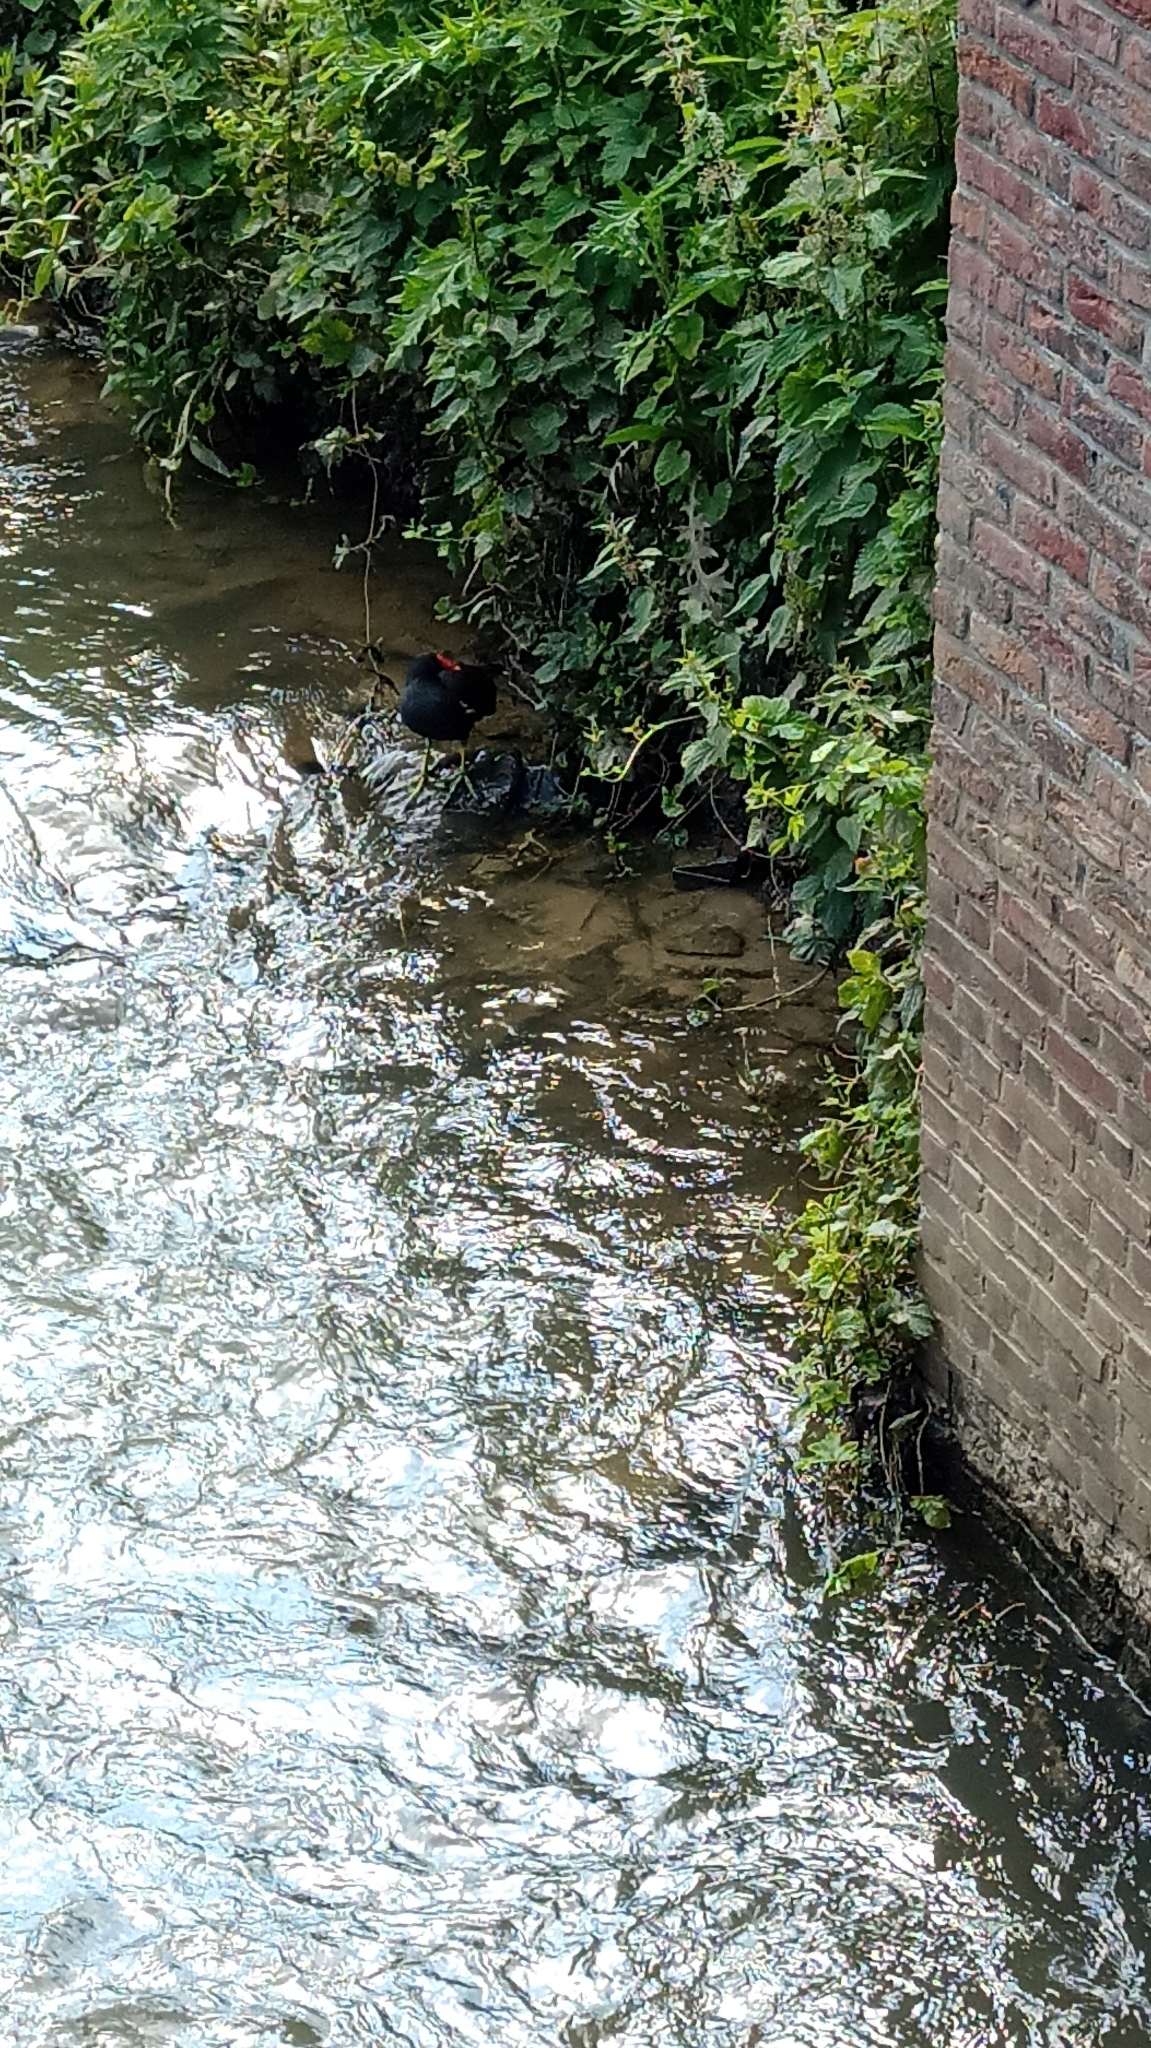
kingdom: Animalia
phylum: Chordata
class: Aves
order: Gruiformes
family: Rallidae
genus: Gallinula
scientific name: Gallinula chloropus
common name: Common moorhen
